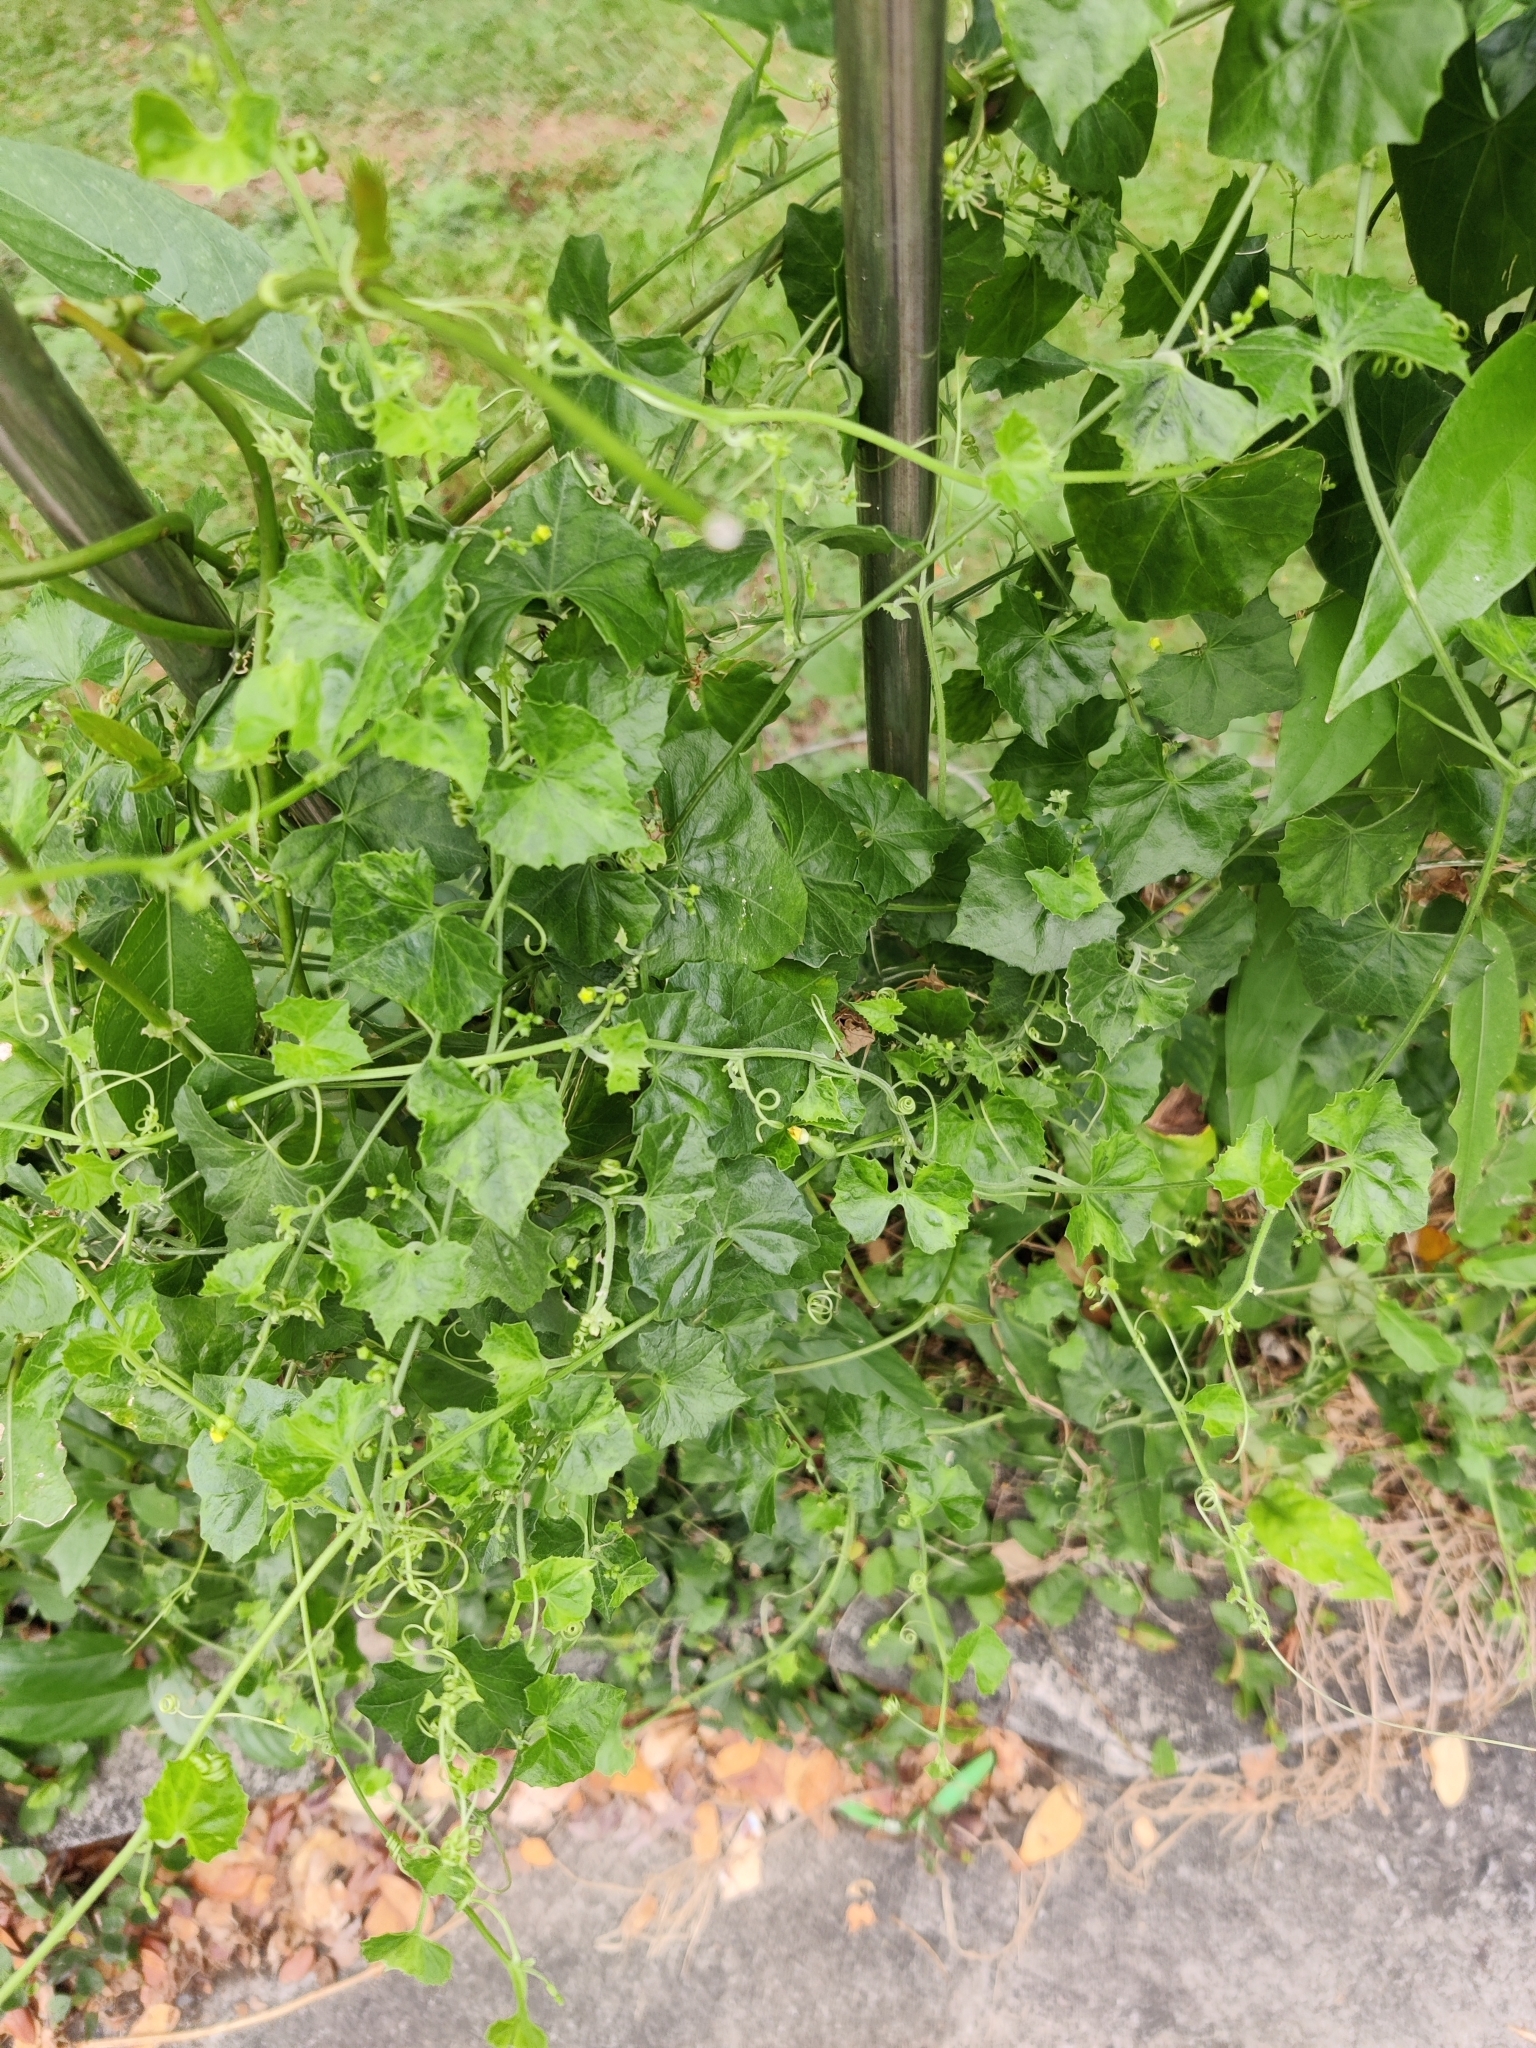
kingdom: Plantae
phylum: Tracheophyta
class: Magnoliopsida
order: Cucurbitales
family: Cucurbitaceae
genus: Melothria
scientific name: Melothria pendula
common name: Creeping-cucumber
